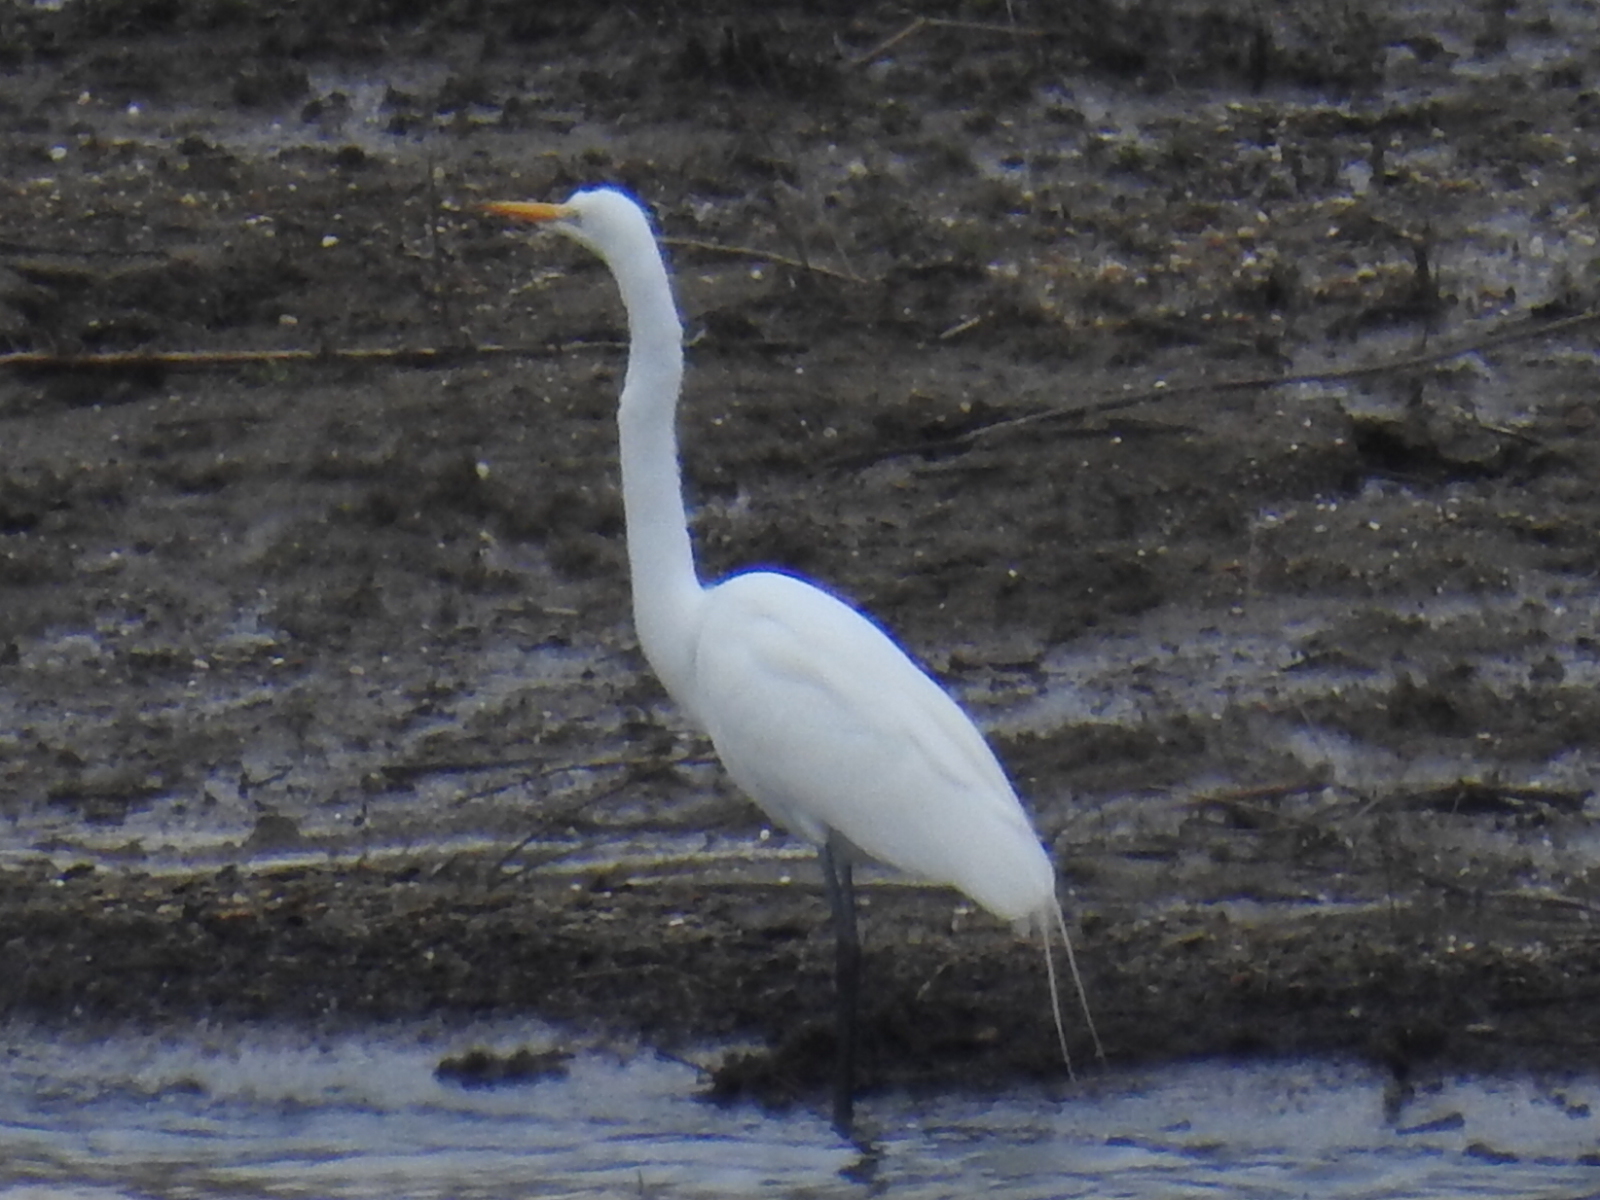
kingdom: Animalia
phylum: Chordata
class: Aves
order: Pelecaniformes
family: Ardeidae
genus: Ardea
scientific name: Ardea alba
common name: Great egret
